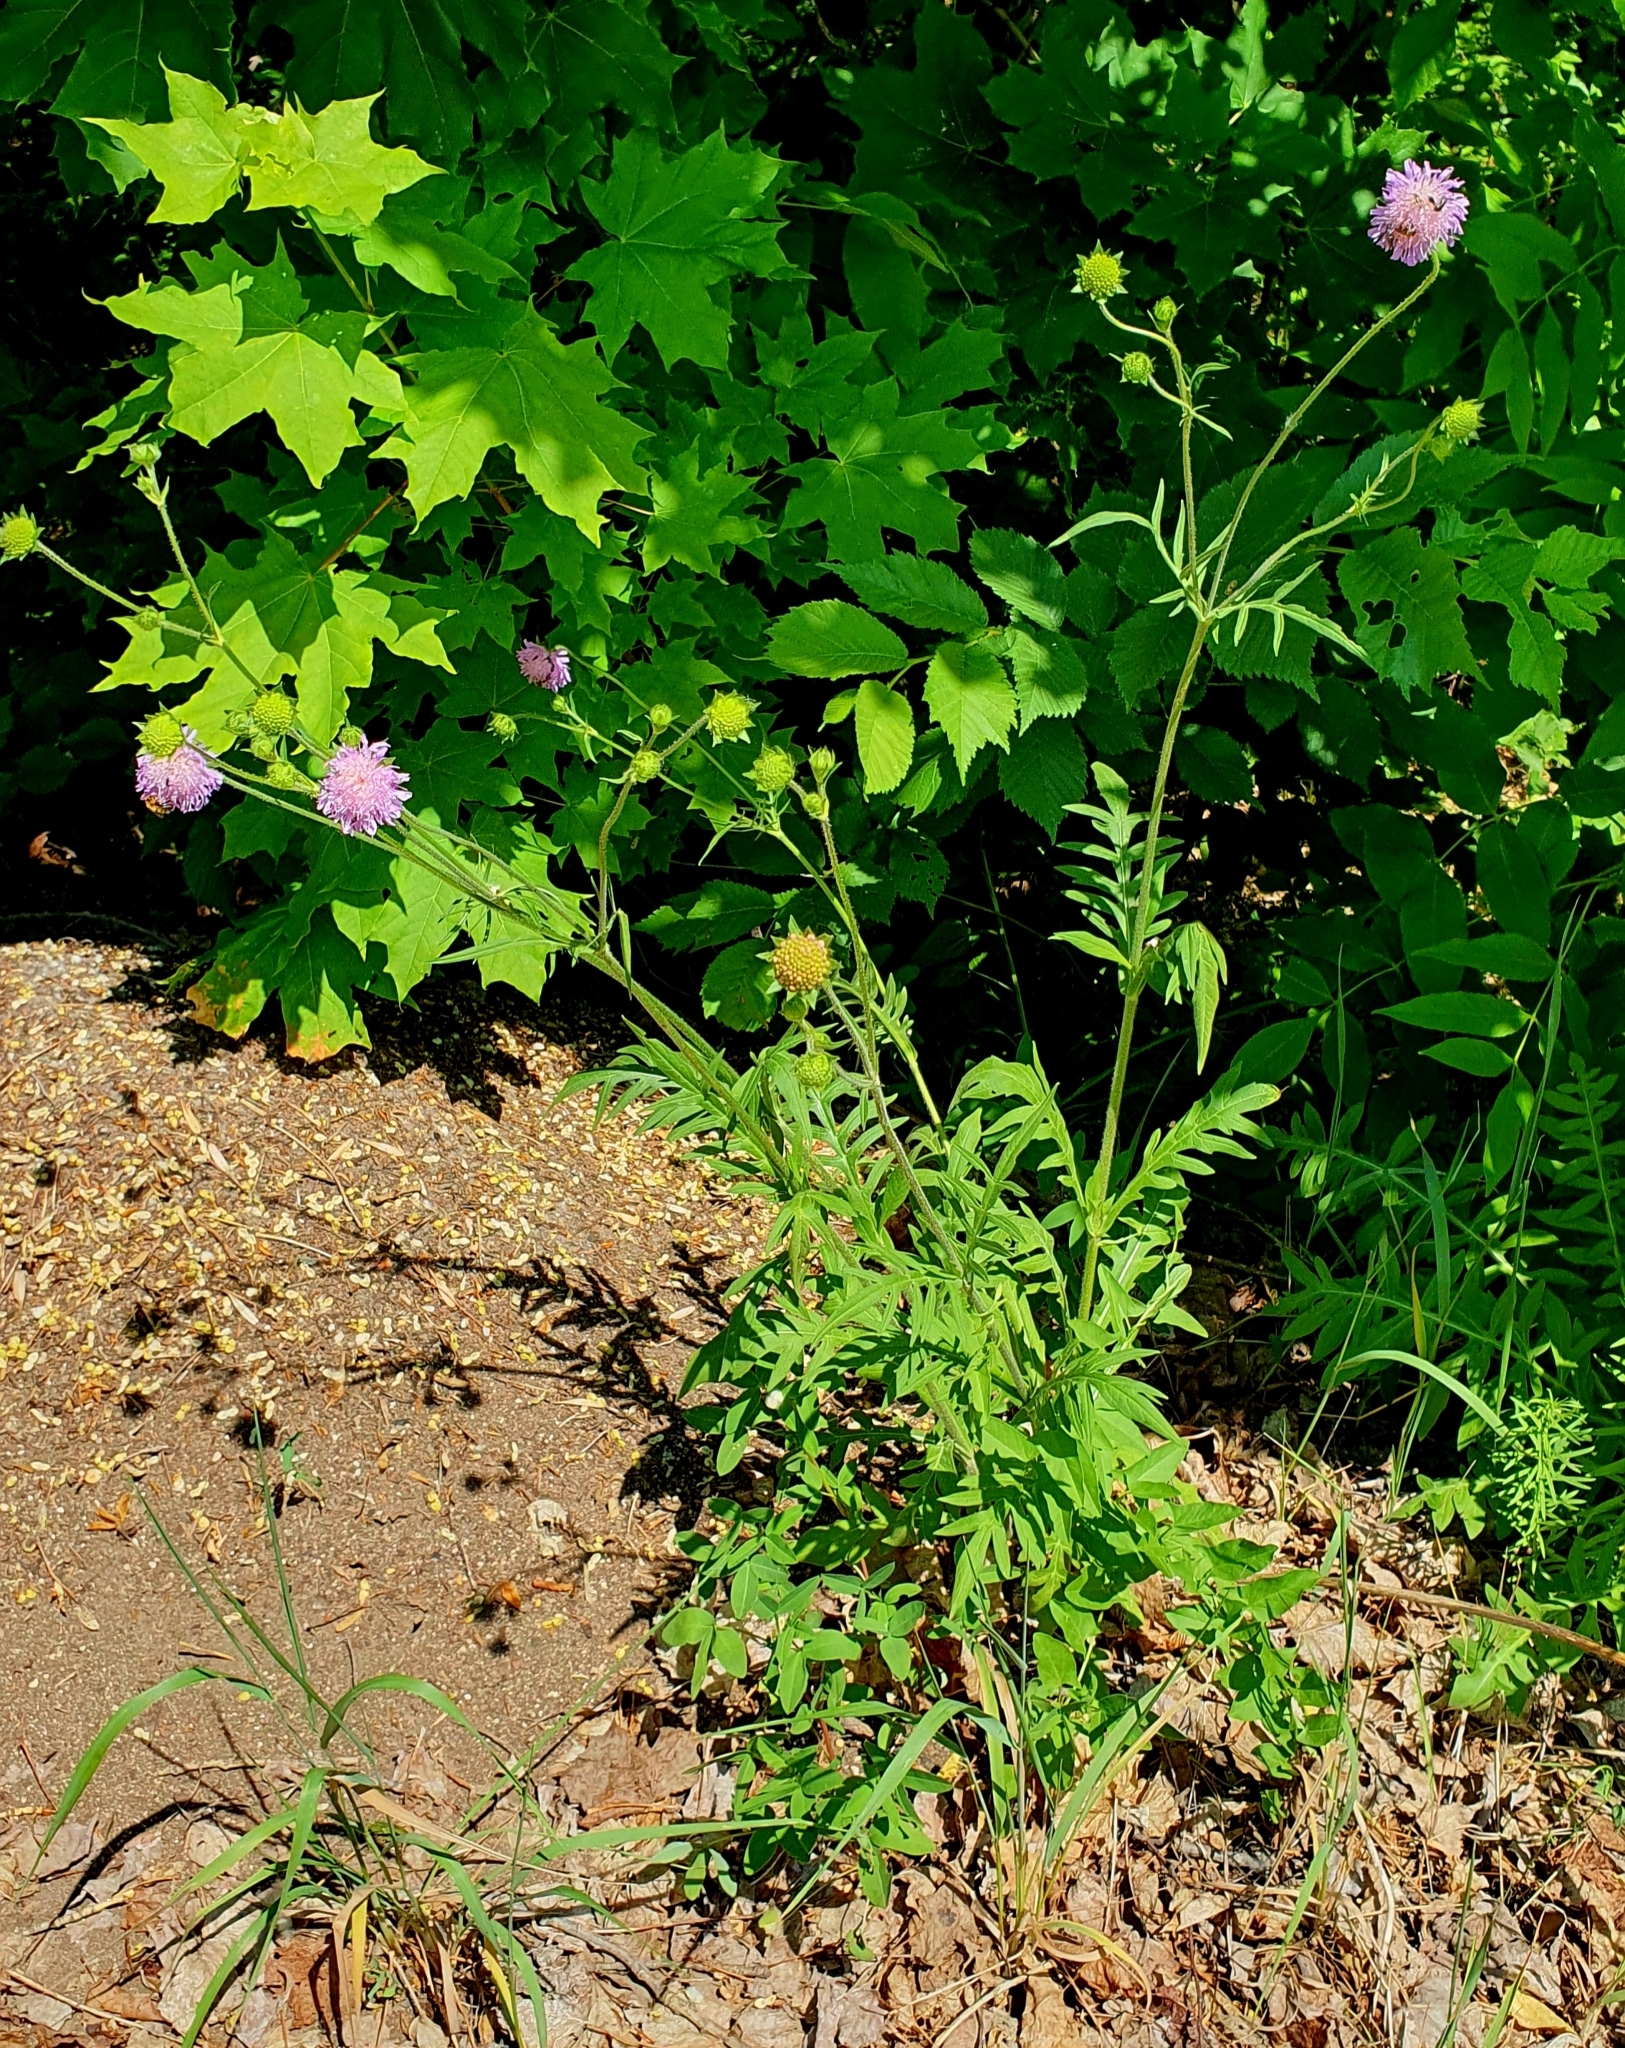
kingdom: Plantae
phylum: Tracheophyta
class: Magnoliopsida
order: Dipsacales
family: Caprifoliaceae
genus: Knautia
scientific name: Knautia arvensis
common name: Field scabiosa
